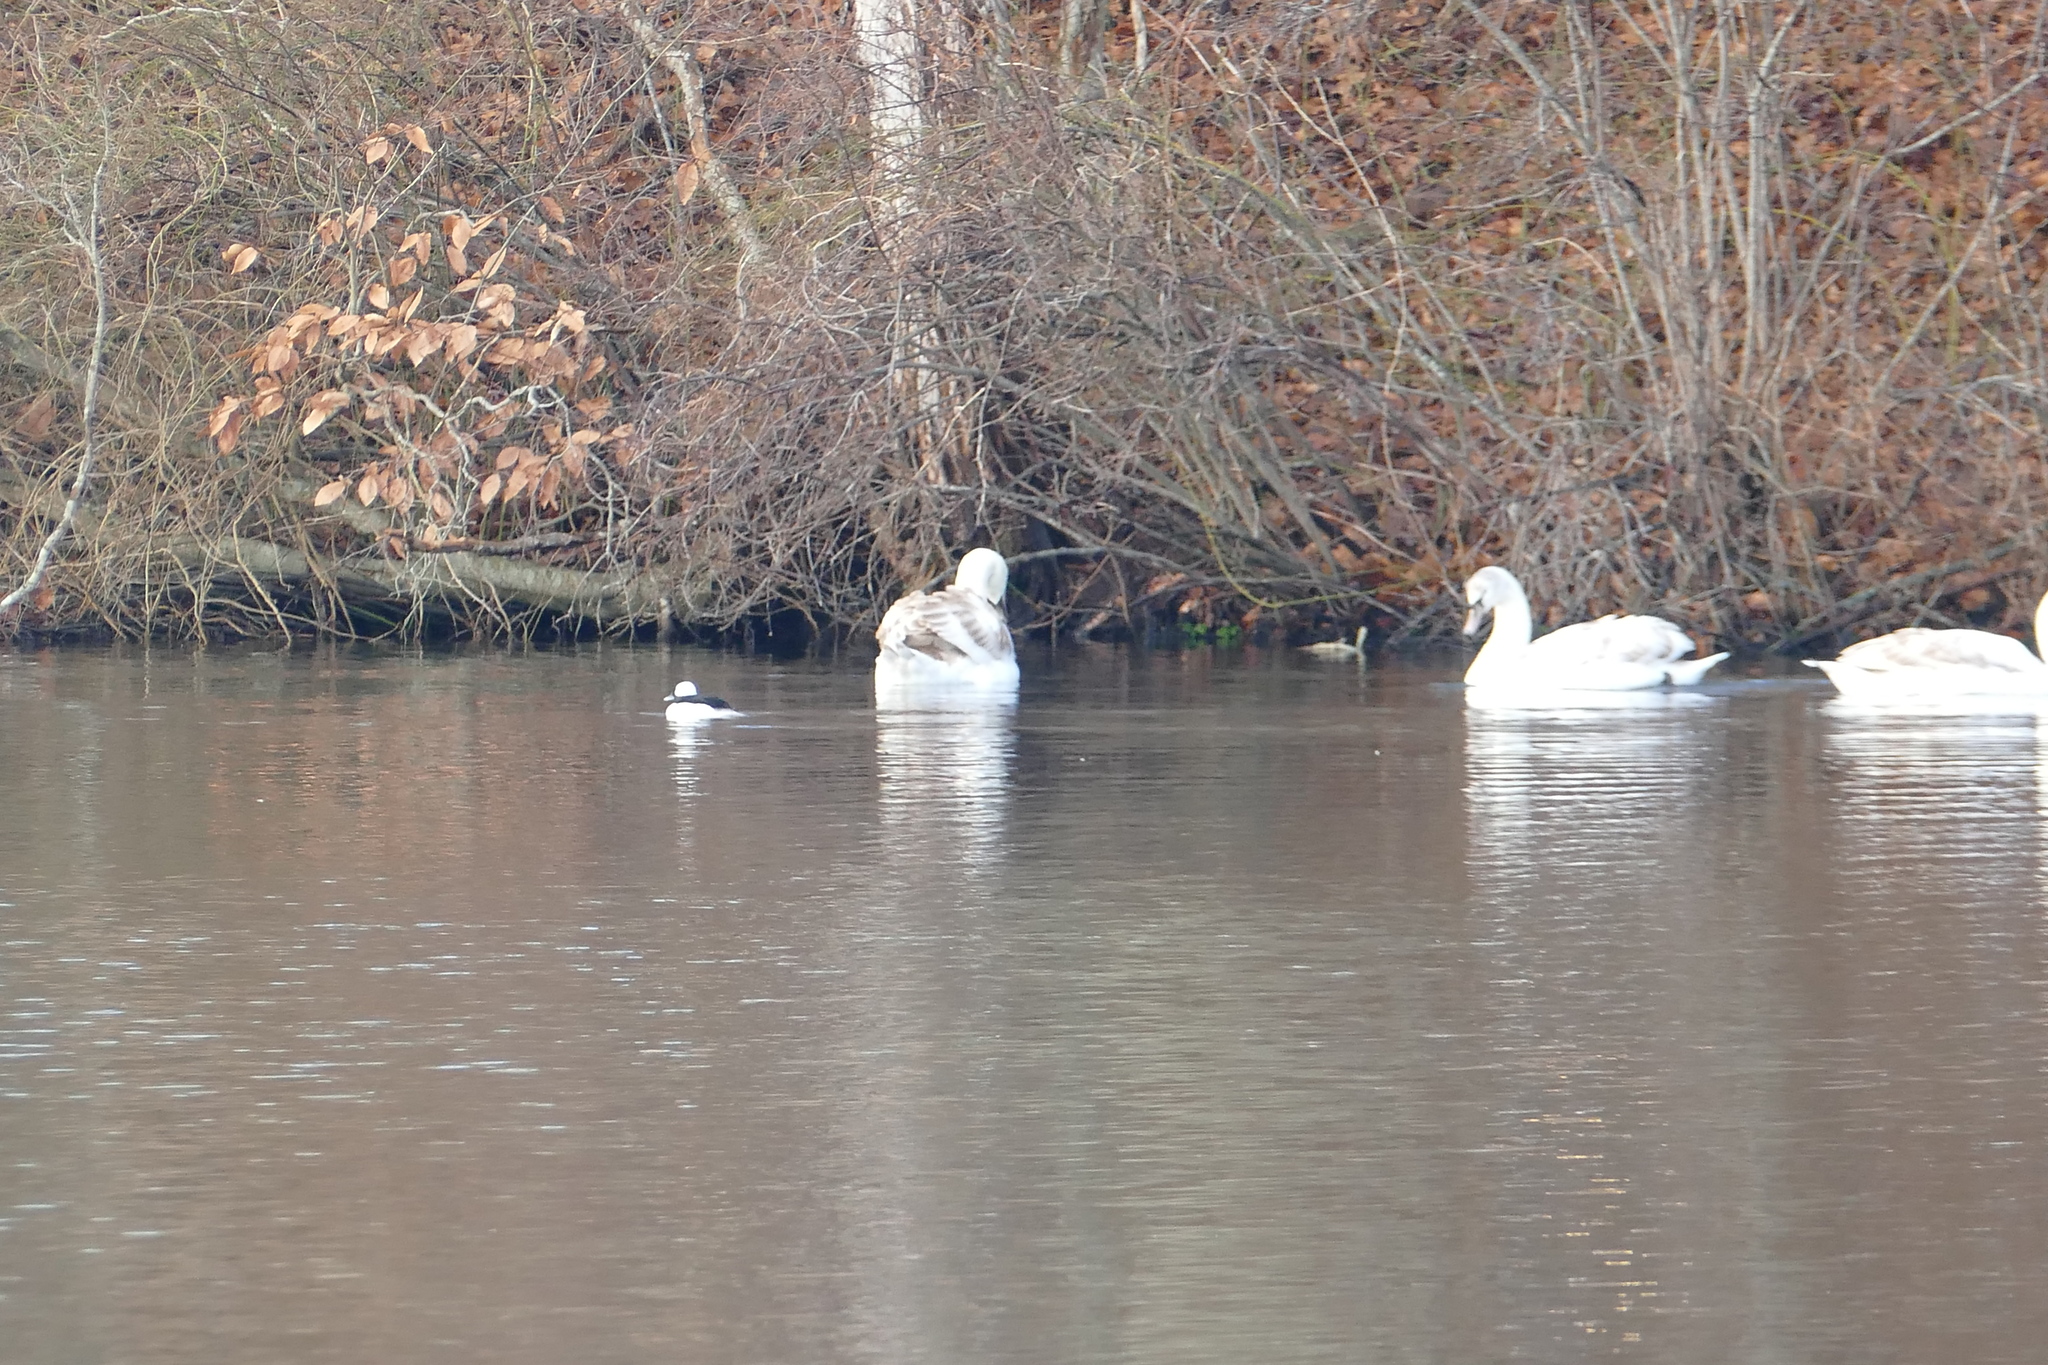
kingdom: Animalia
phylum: Chordata
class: Aves
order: Anseriformes
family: Anatidae
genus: Bucephala
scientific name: Bucephala albeola
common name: Bufflehead
